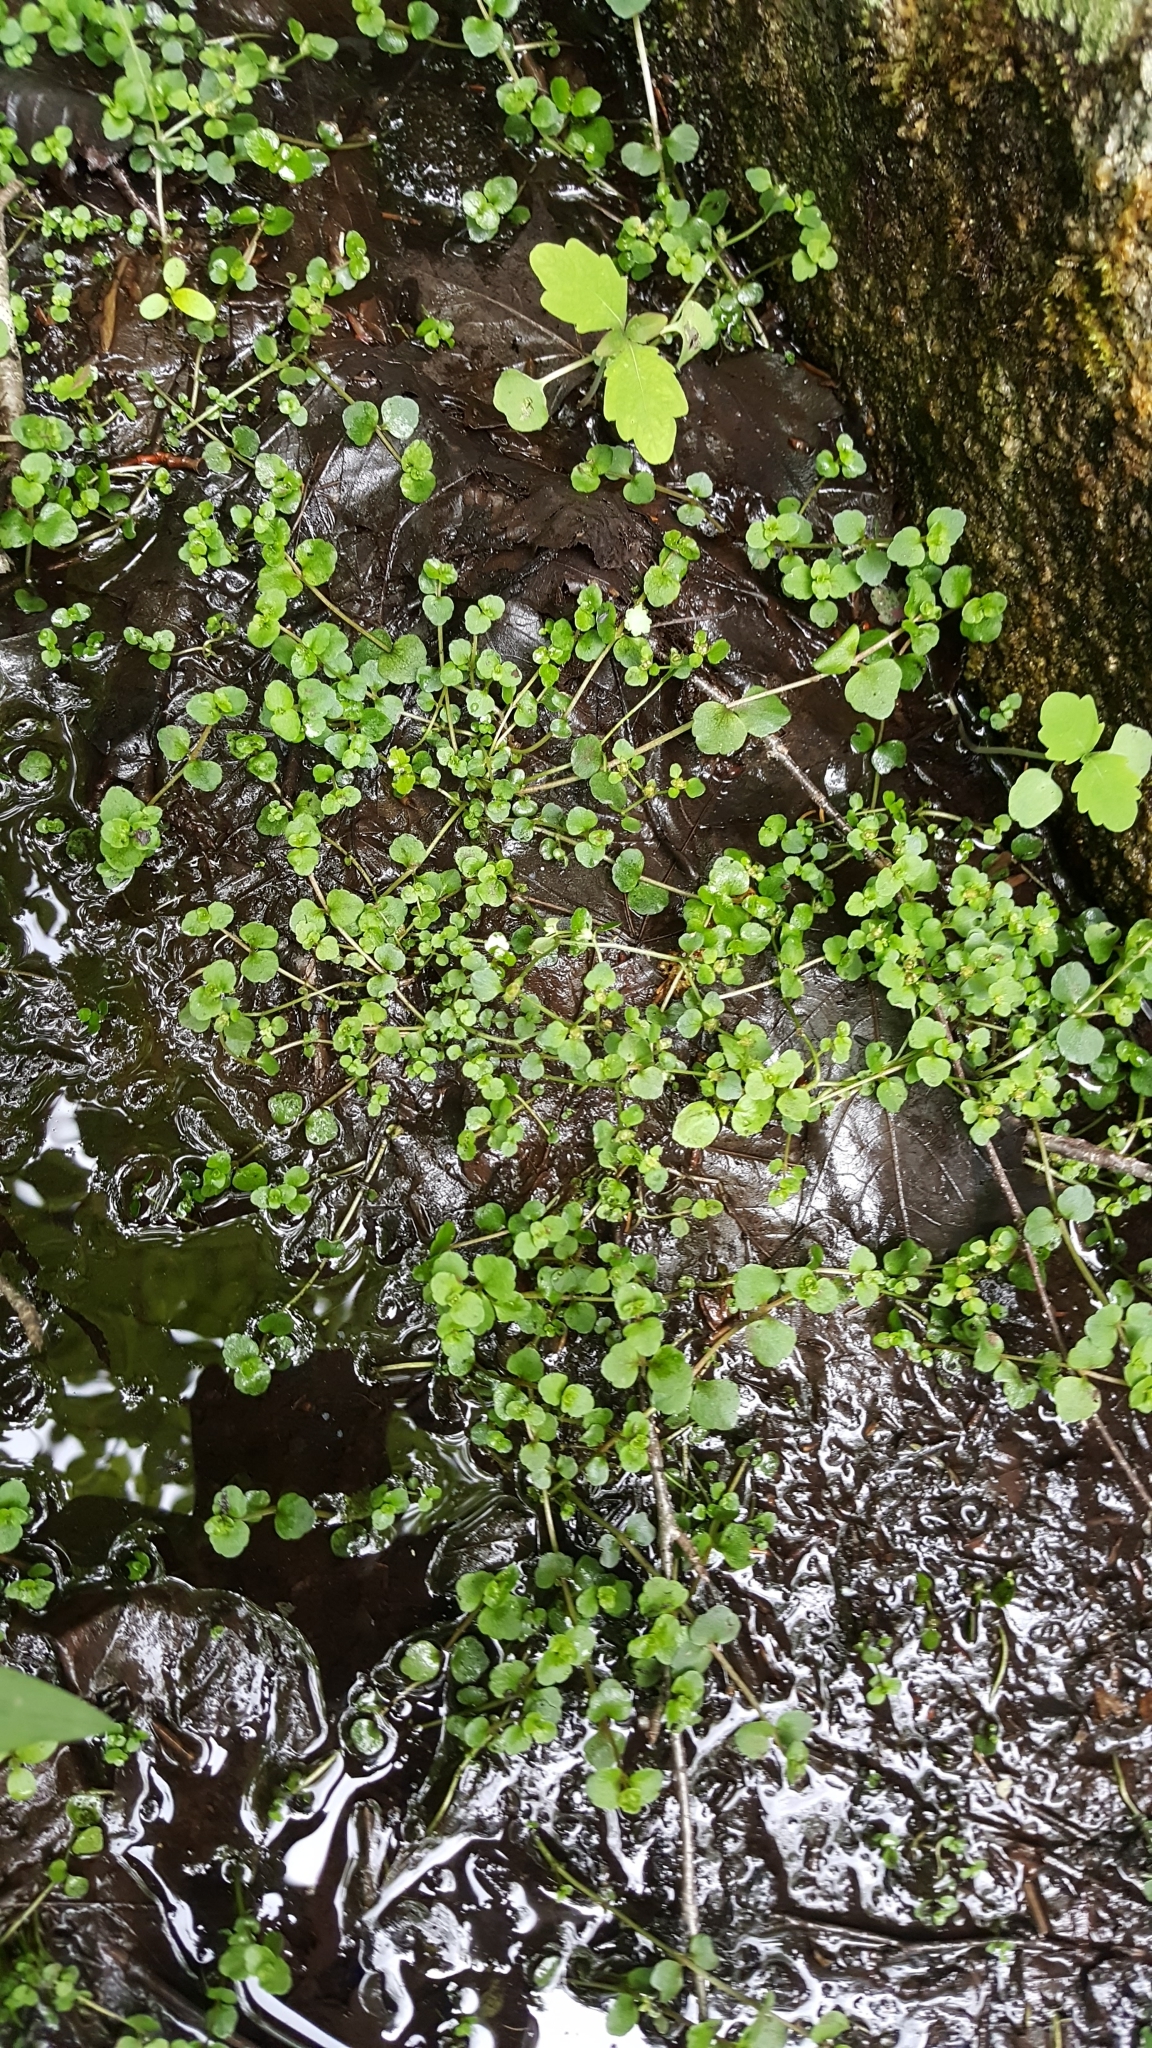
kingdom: Plantae
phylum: Tracheophyta
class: Magnoliopsida
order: Saxifragales
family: Saxifragaceae
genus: Chrysosplenium
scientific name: Chrysosplenium americanum
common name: American golden-saxifrage
